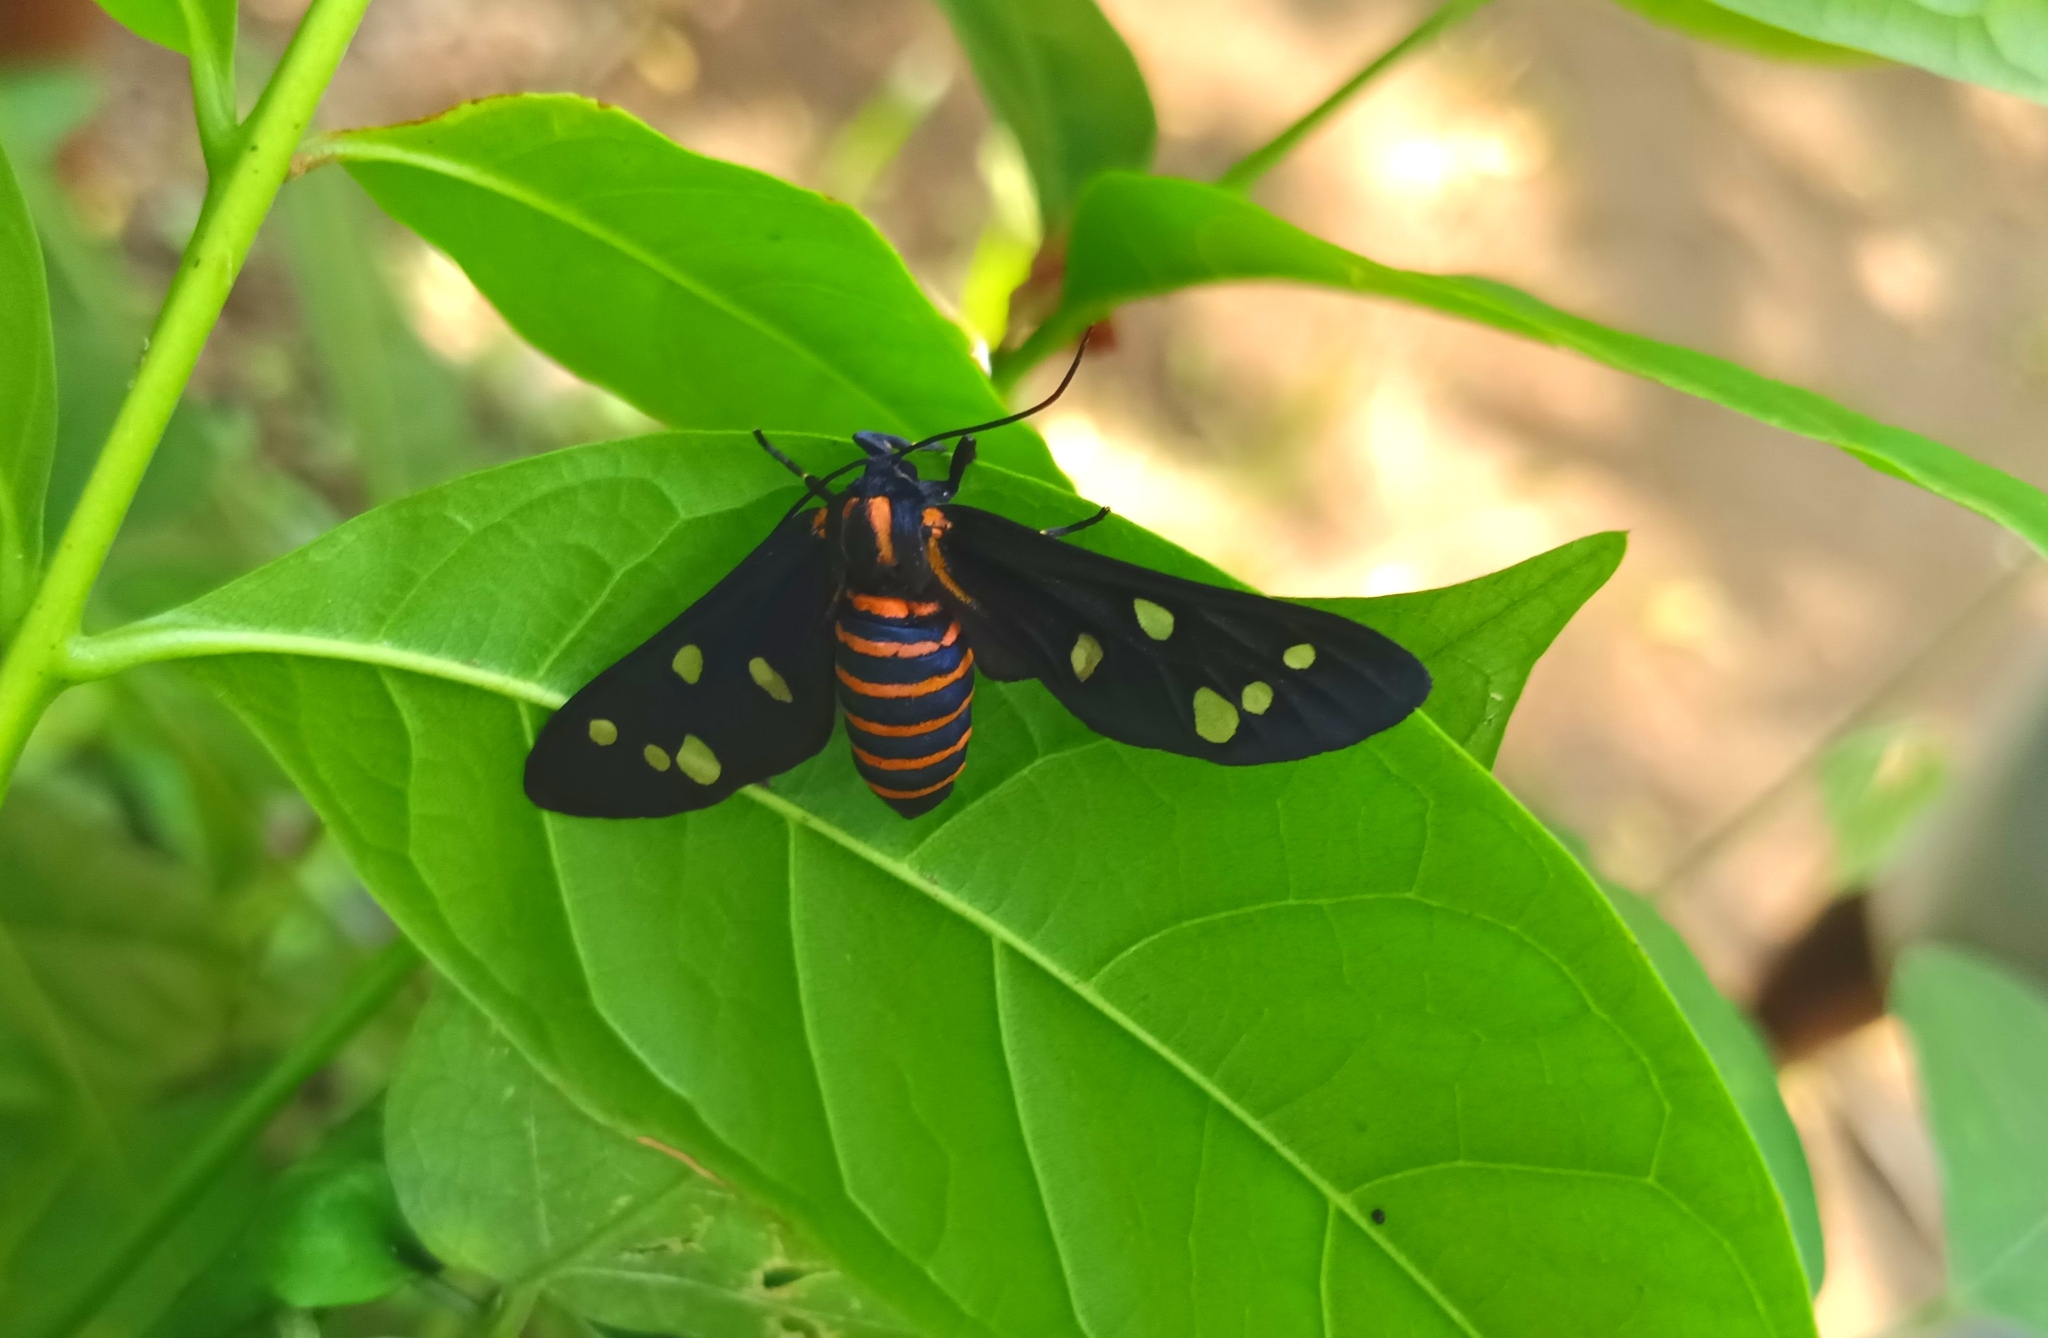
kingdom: Animalia
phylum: Arthropoda
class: Insecta
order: Lepidoptera
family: Erebidae
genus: Amata
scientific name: Amata passalis
